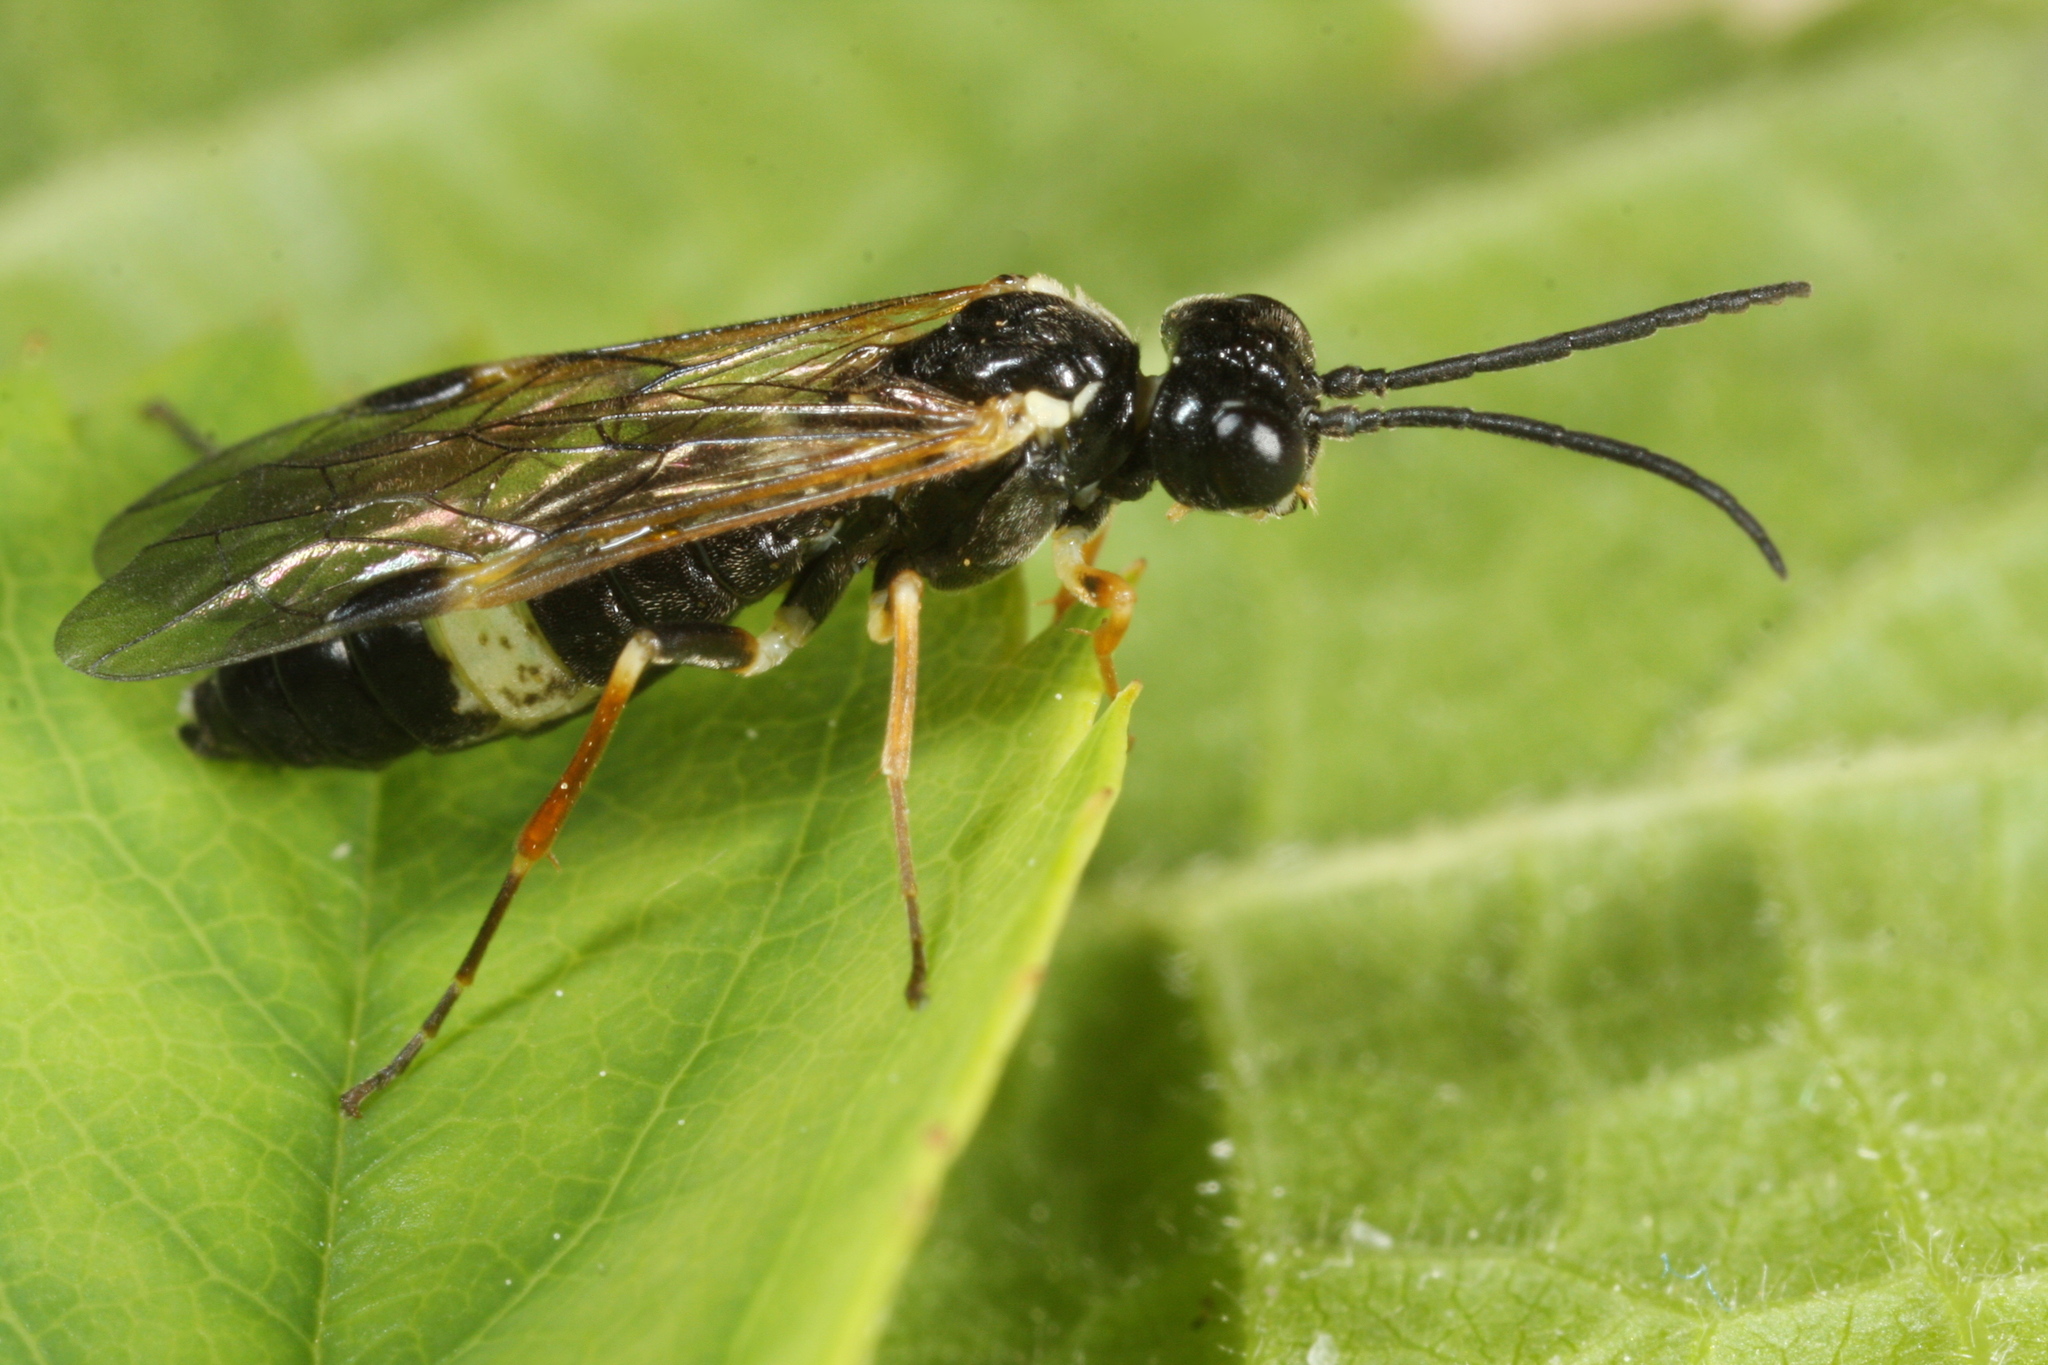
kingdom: Animalia
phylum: Arthropoda
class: Insecta
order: Hymenoptera
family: Tenthredinidae
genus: Allantus
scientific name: Allantus cingulatus
